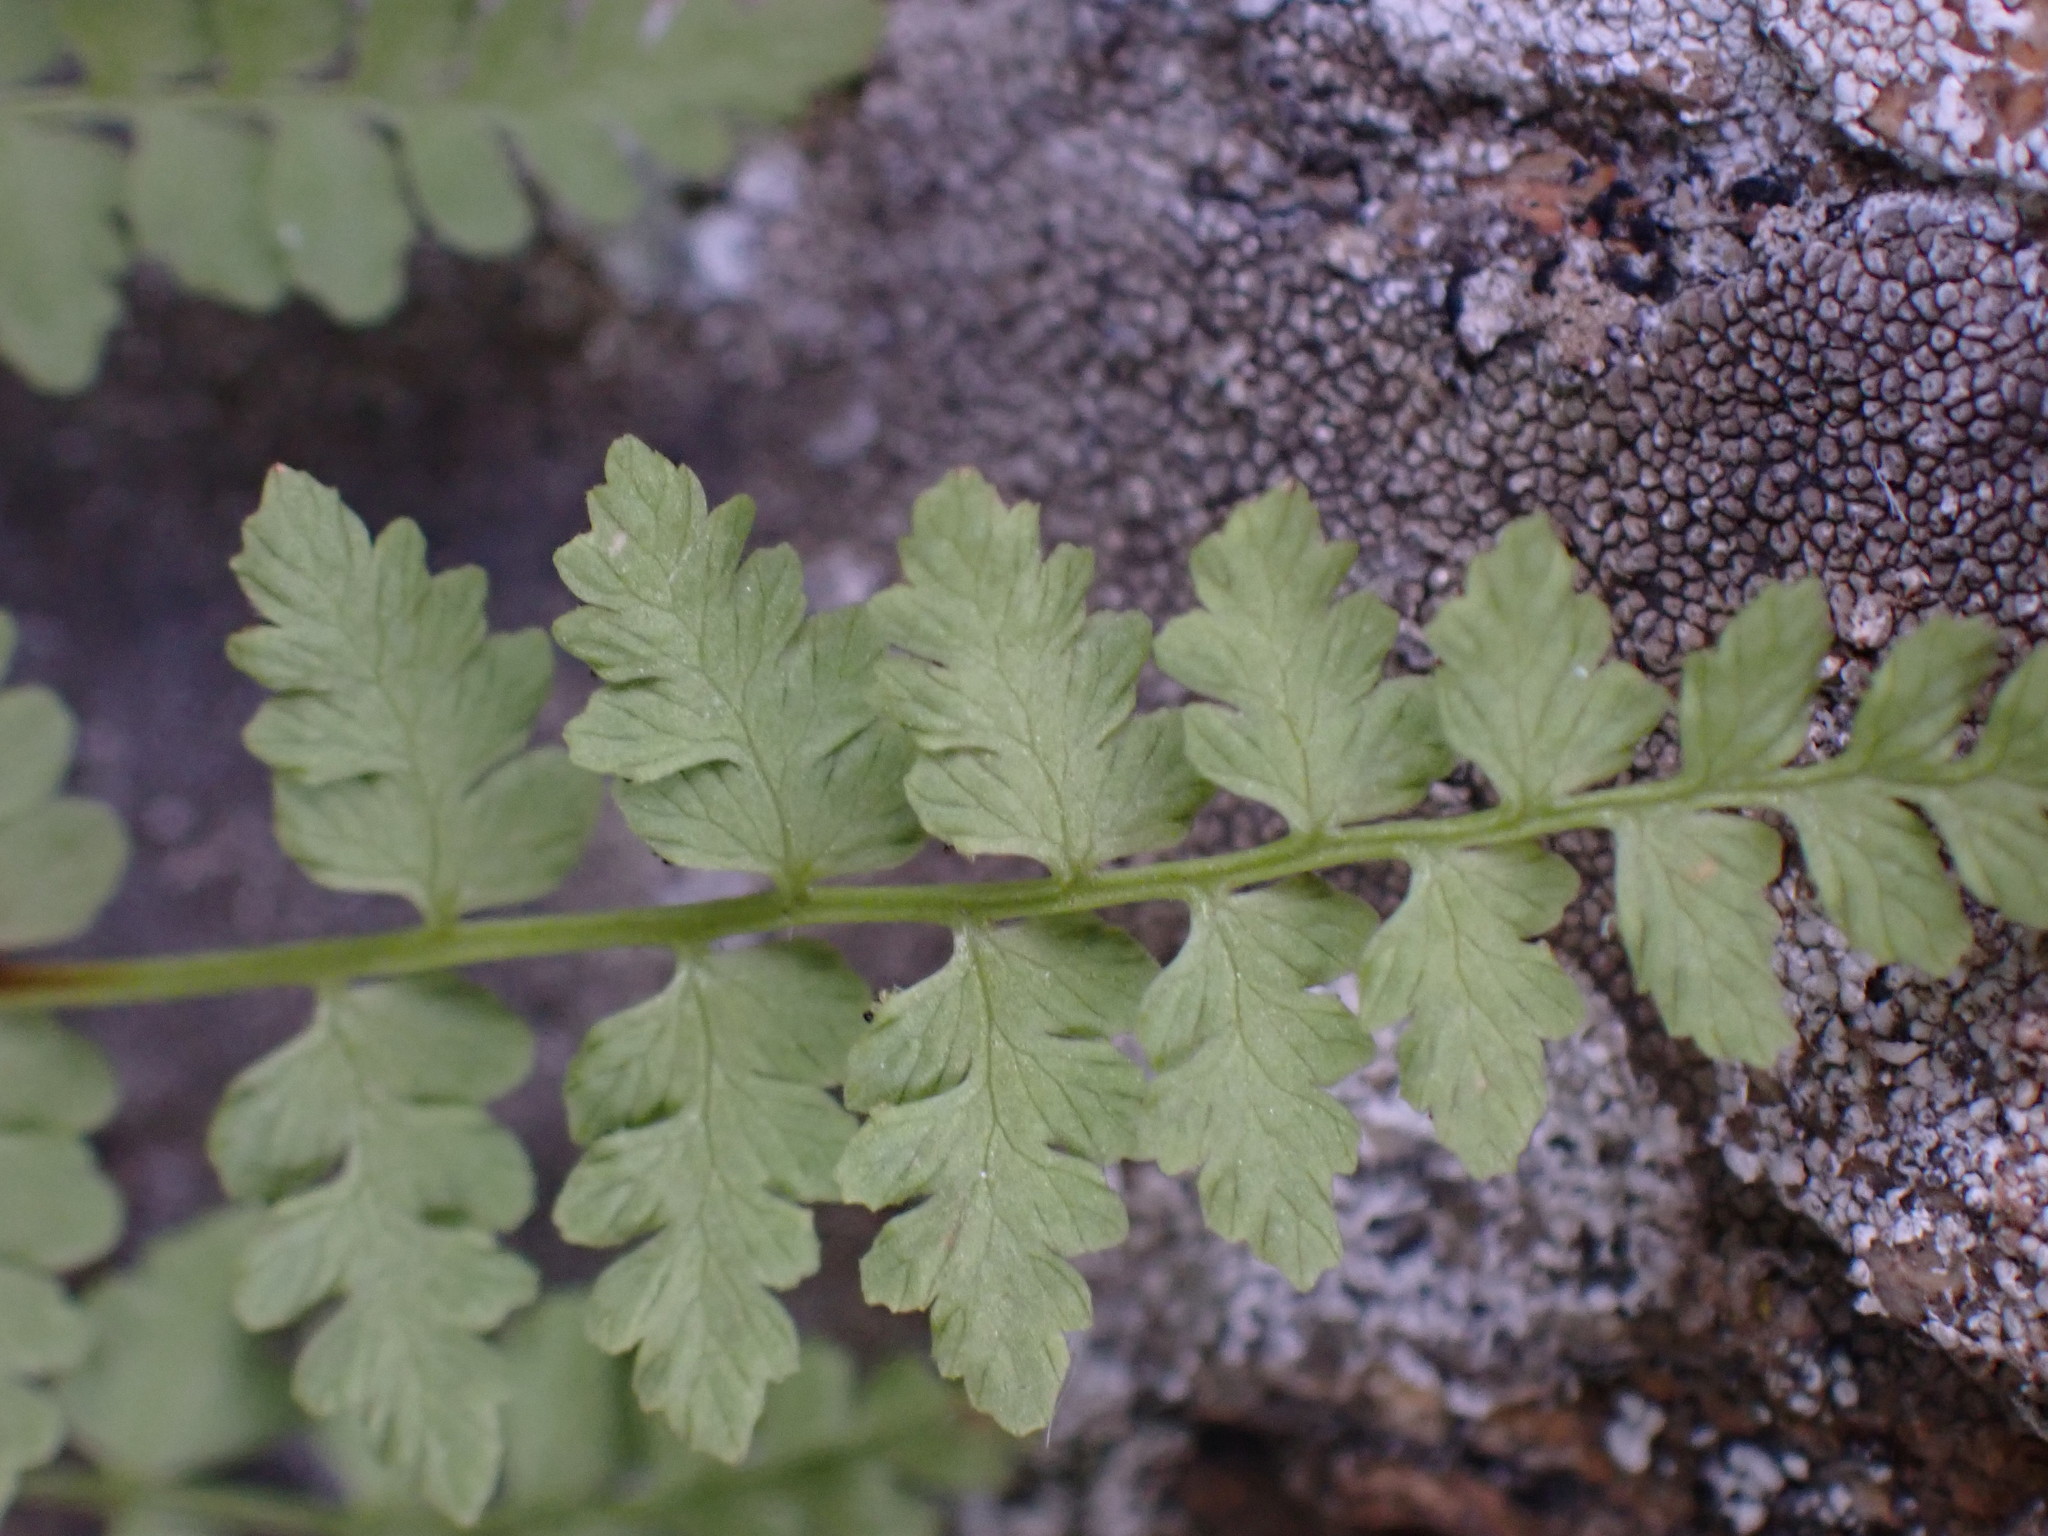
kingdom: Plantae
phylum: Tracheophyta
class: Polypodiopsida
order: Polypodiales
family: Cystopteridaceae
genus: Cystopteris
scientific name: Cystopteris fragilis
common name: Brittle bladder fern
